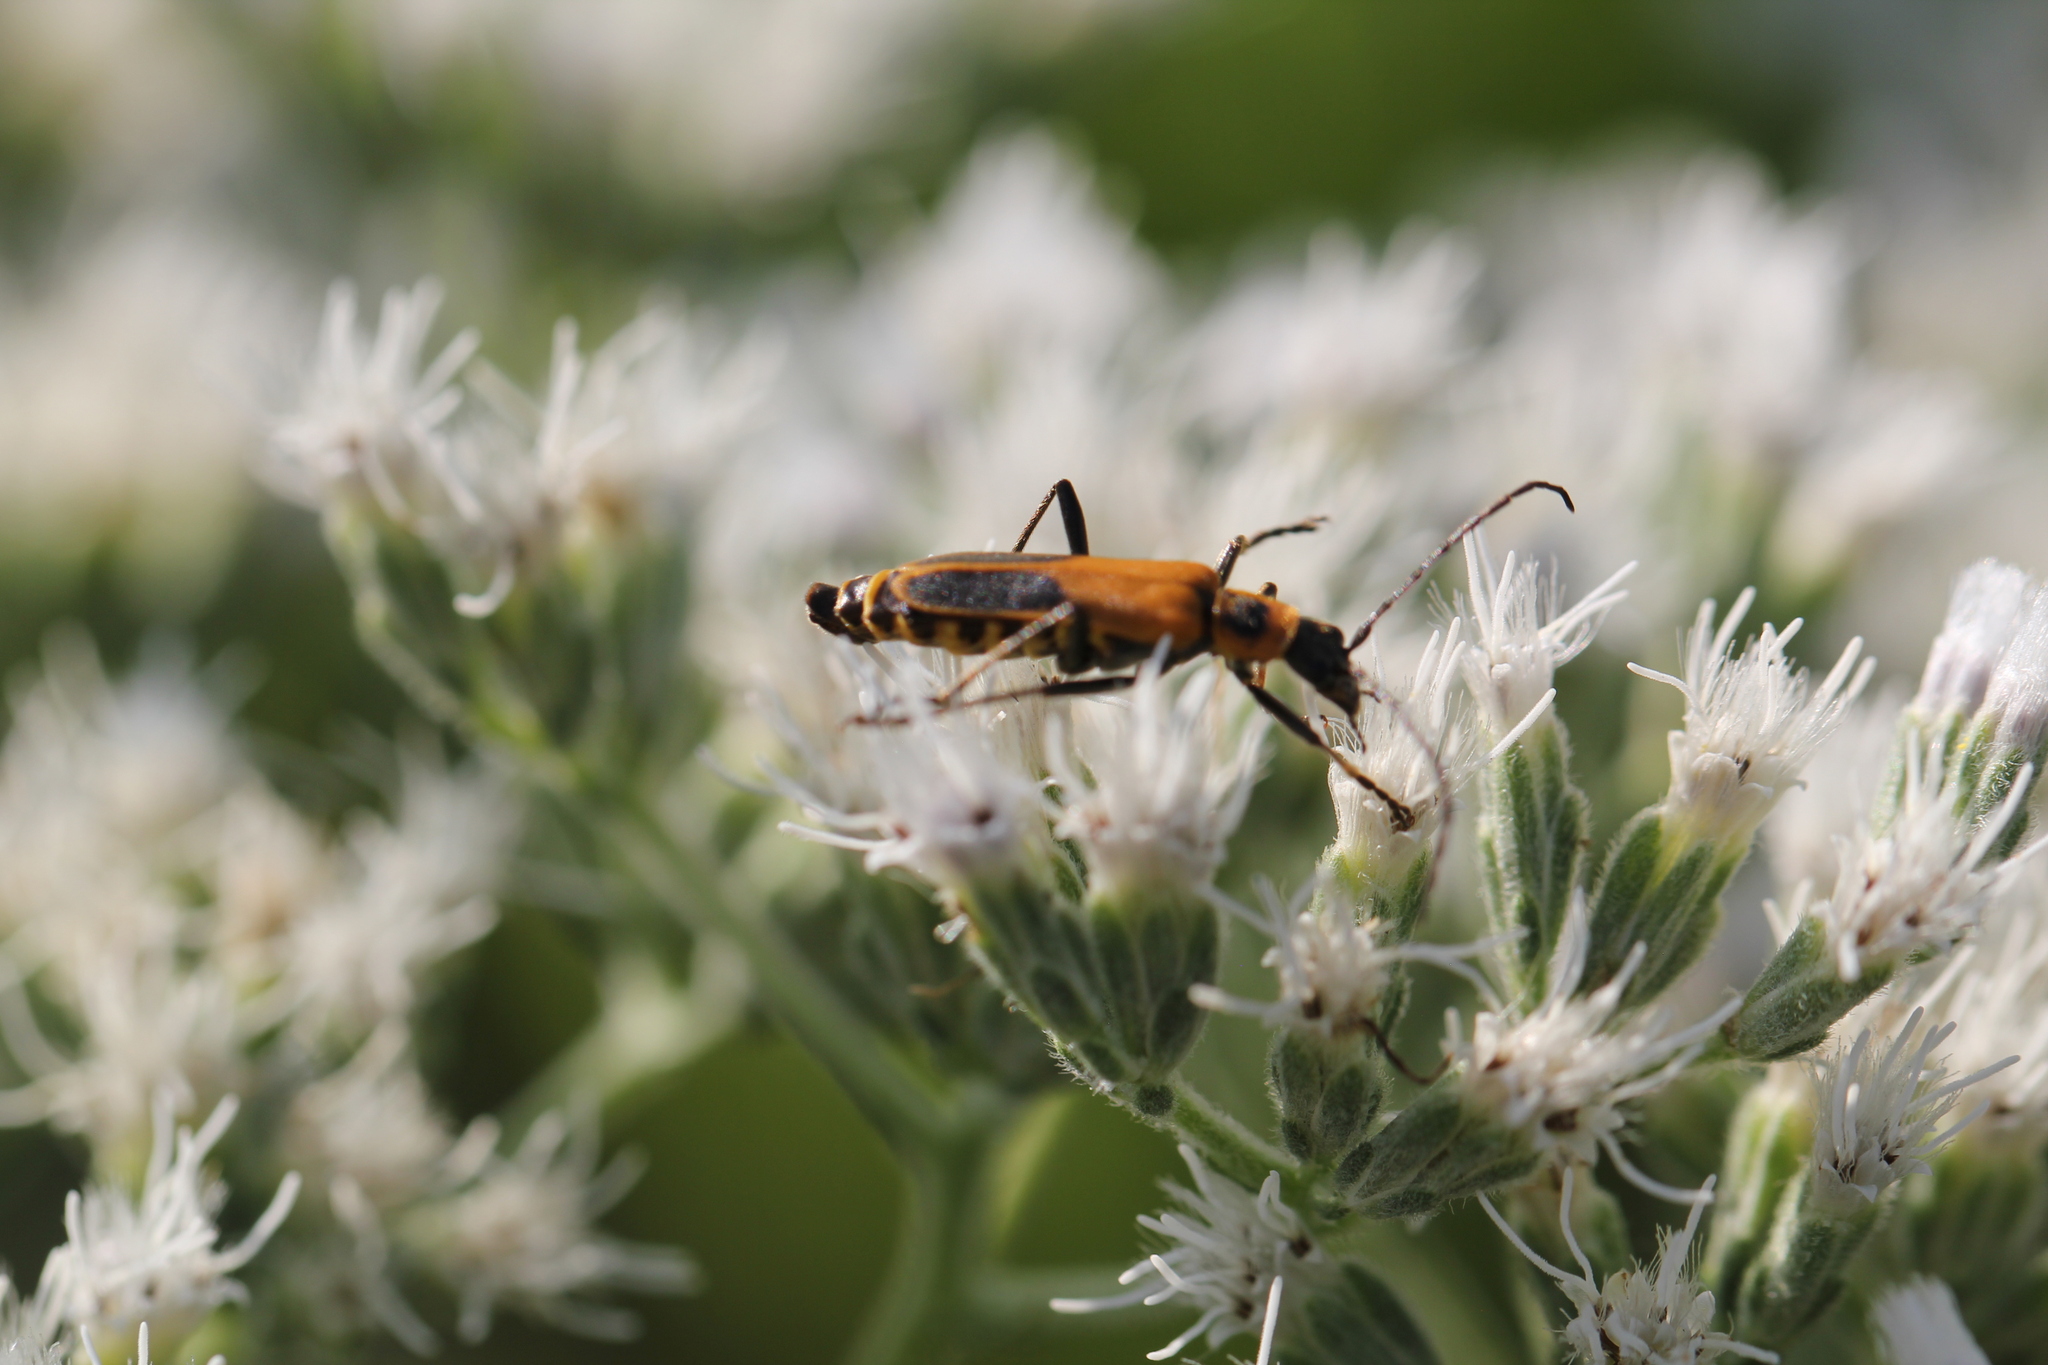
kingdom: Animalia
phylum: Arthropoda
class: Insecta
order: Coleoptera
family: Cantharidae
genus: Chauliognathus
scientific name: Chauliognathus pensylvanicus
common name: Goldenrod soldier beetle
